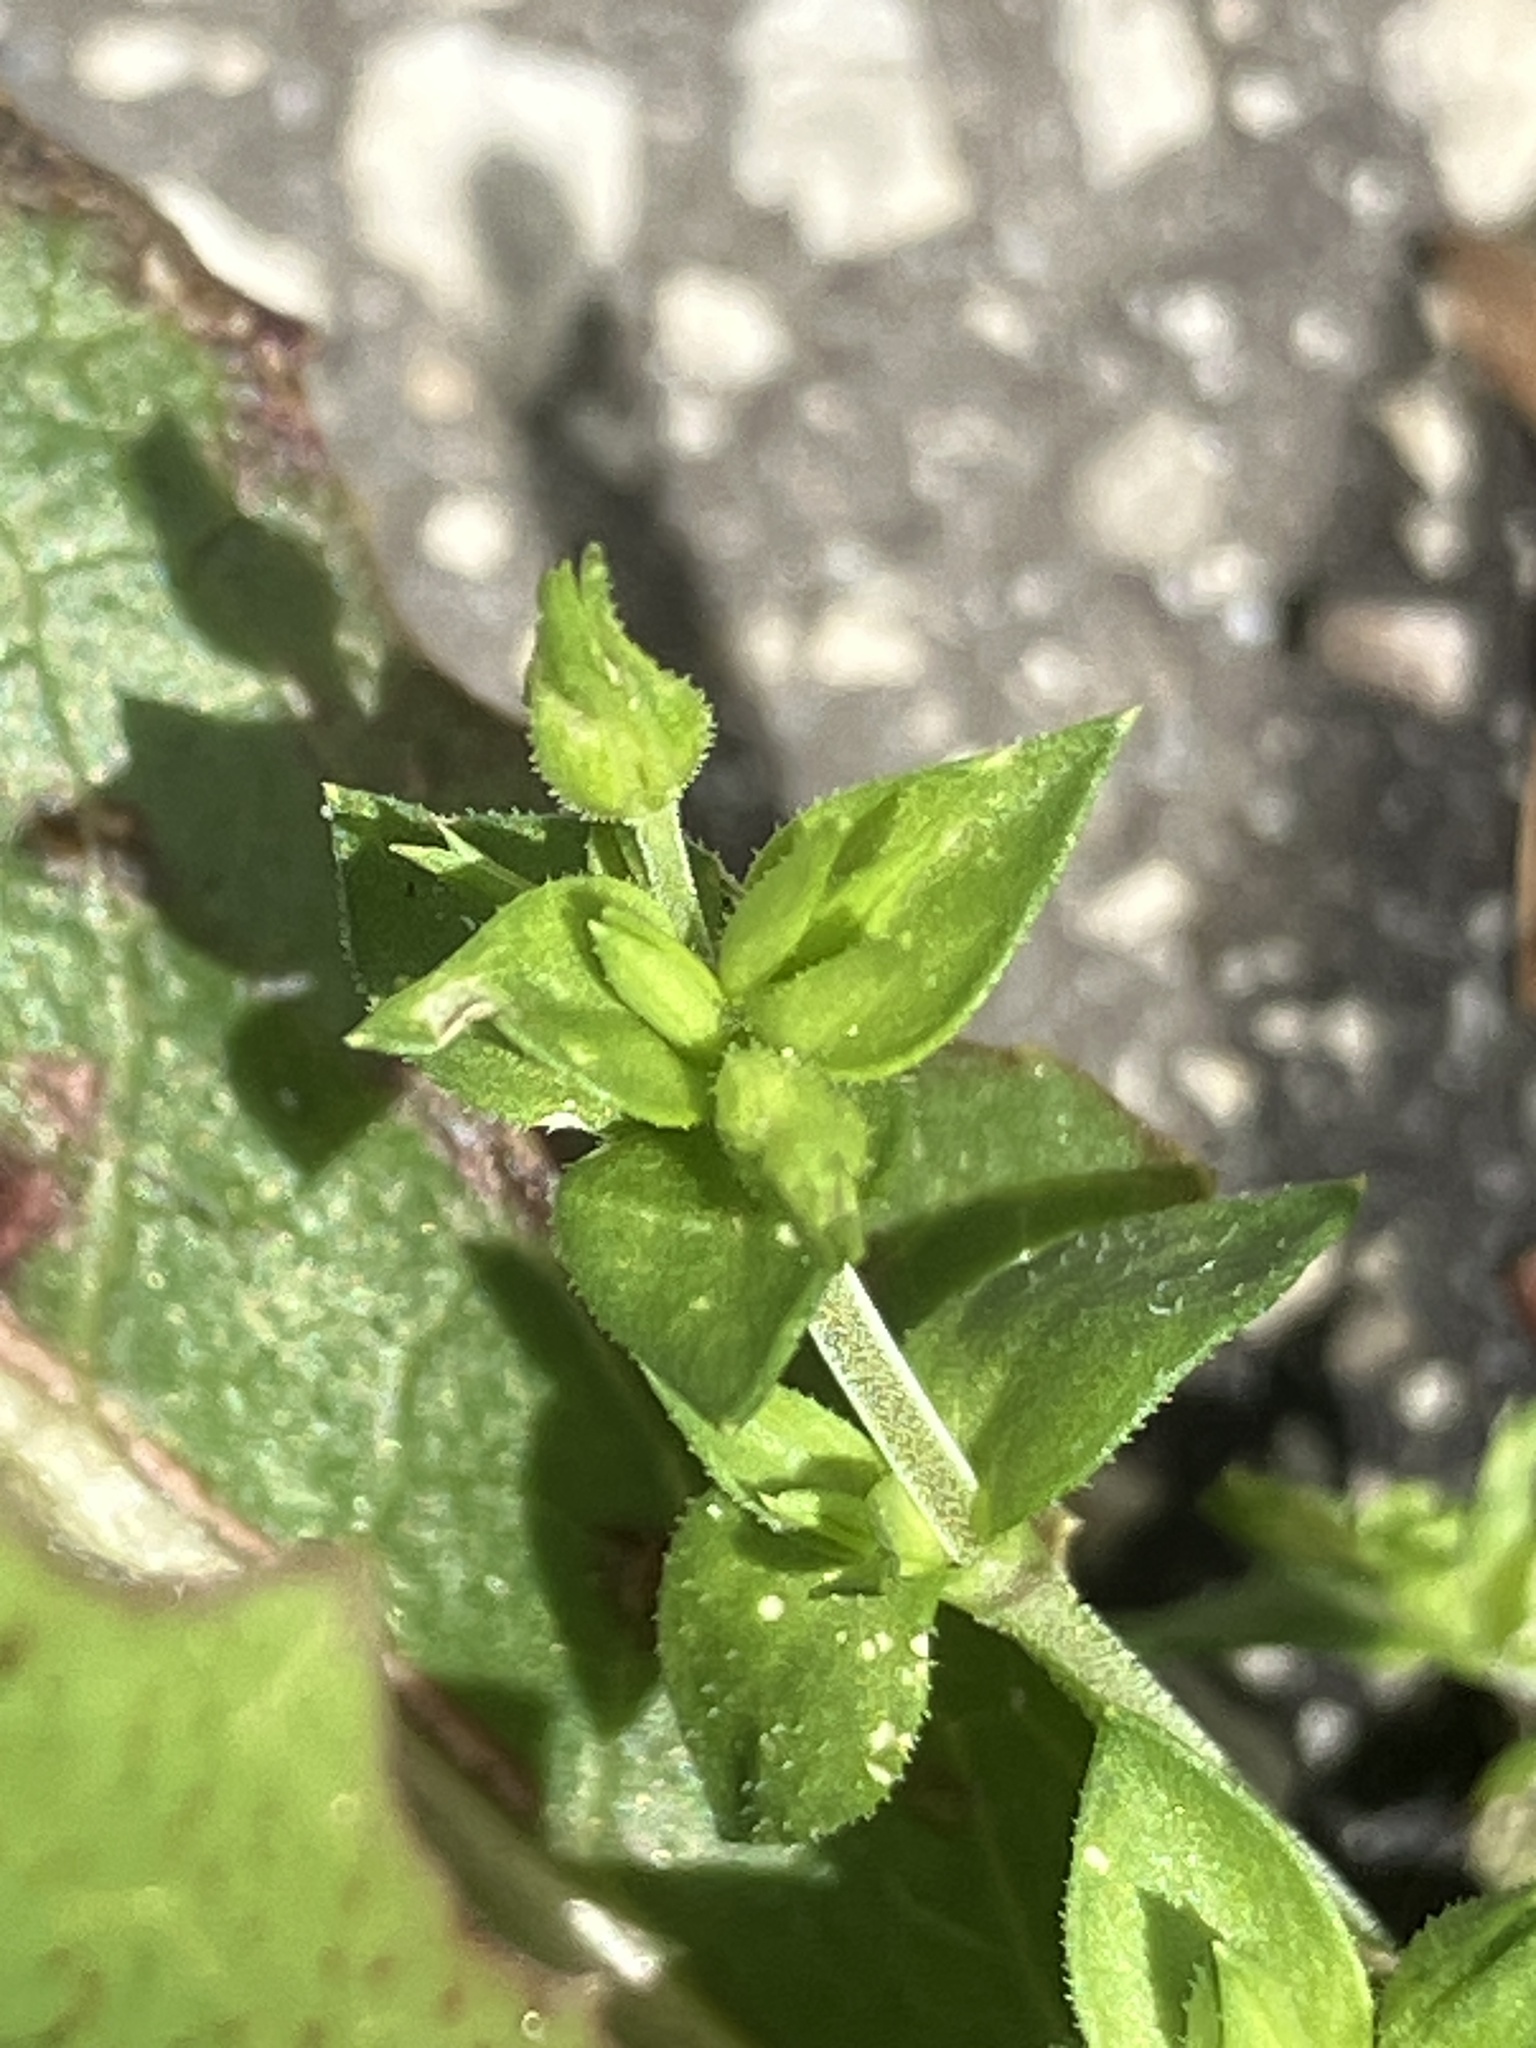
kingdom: Plantae
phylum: Tracheophyta
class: Magnoliopsida
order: Caryophyllales
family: Caryophyllaceae
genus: Arenaria
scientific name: Arenaria serpyllifolia
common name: Thyme-leaved sandwort
